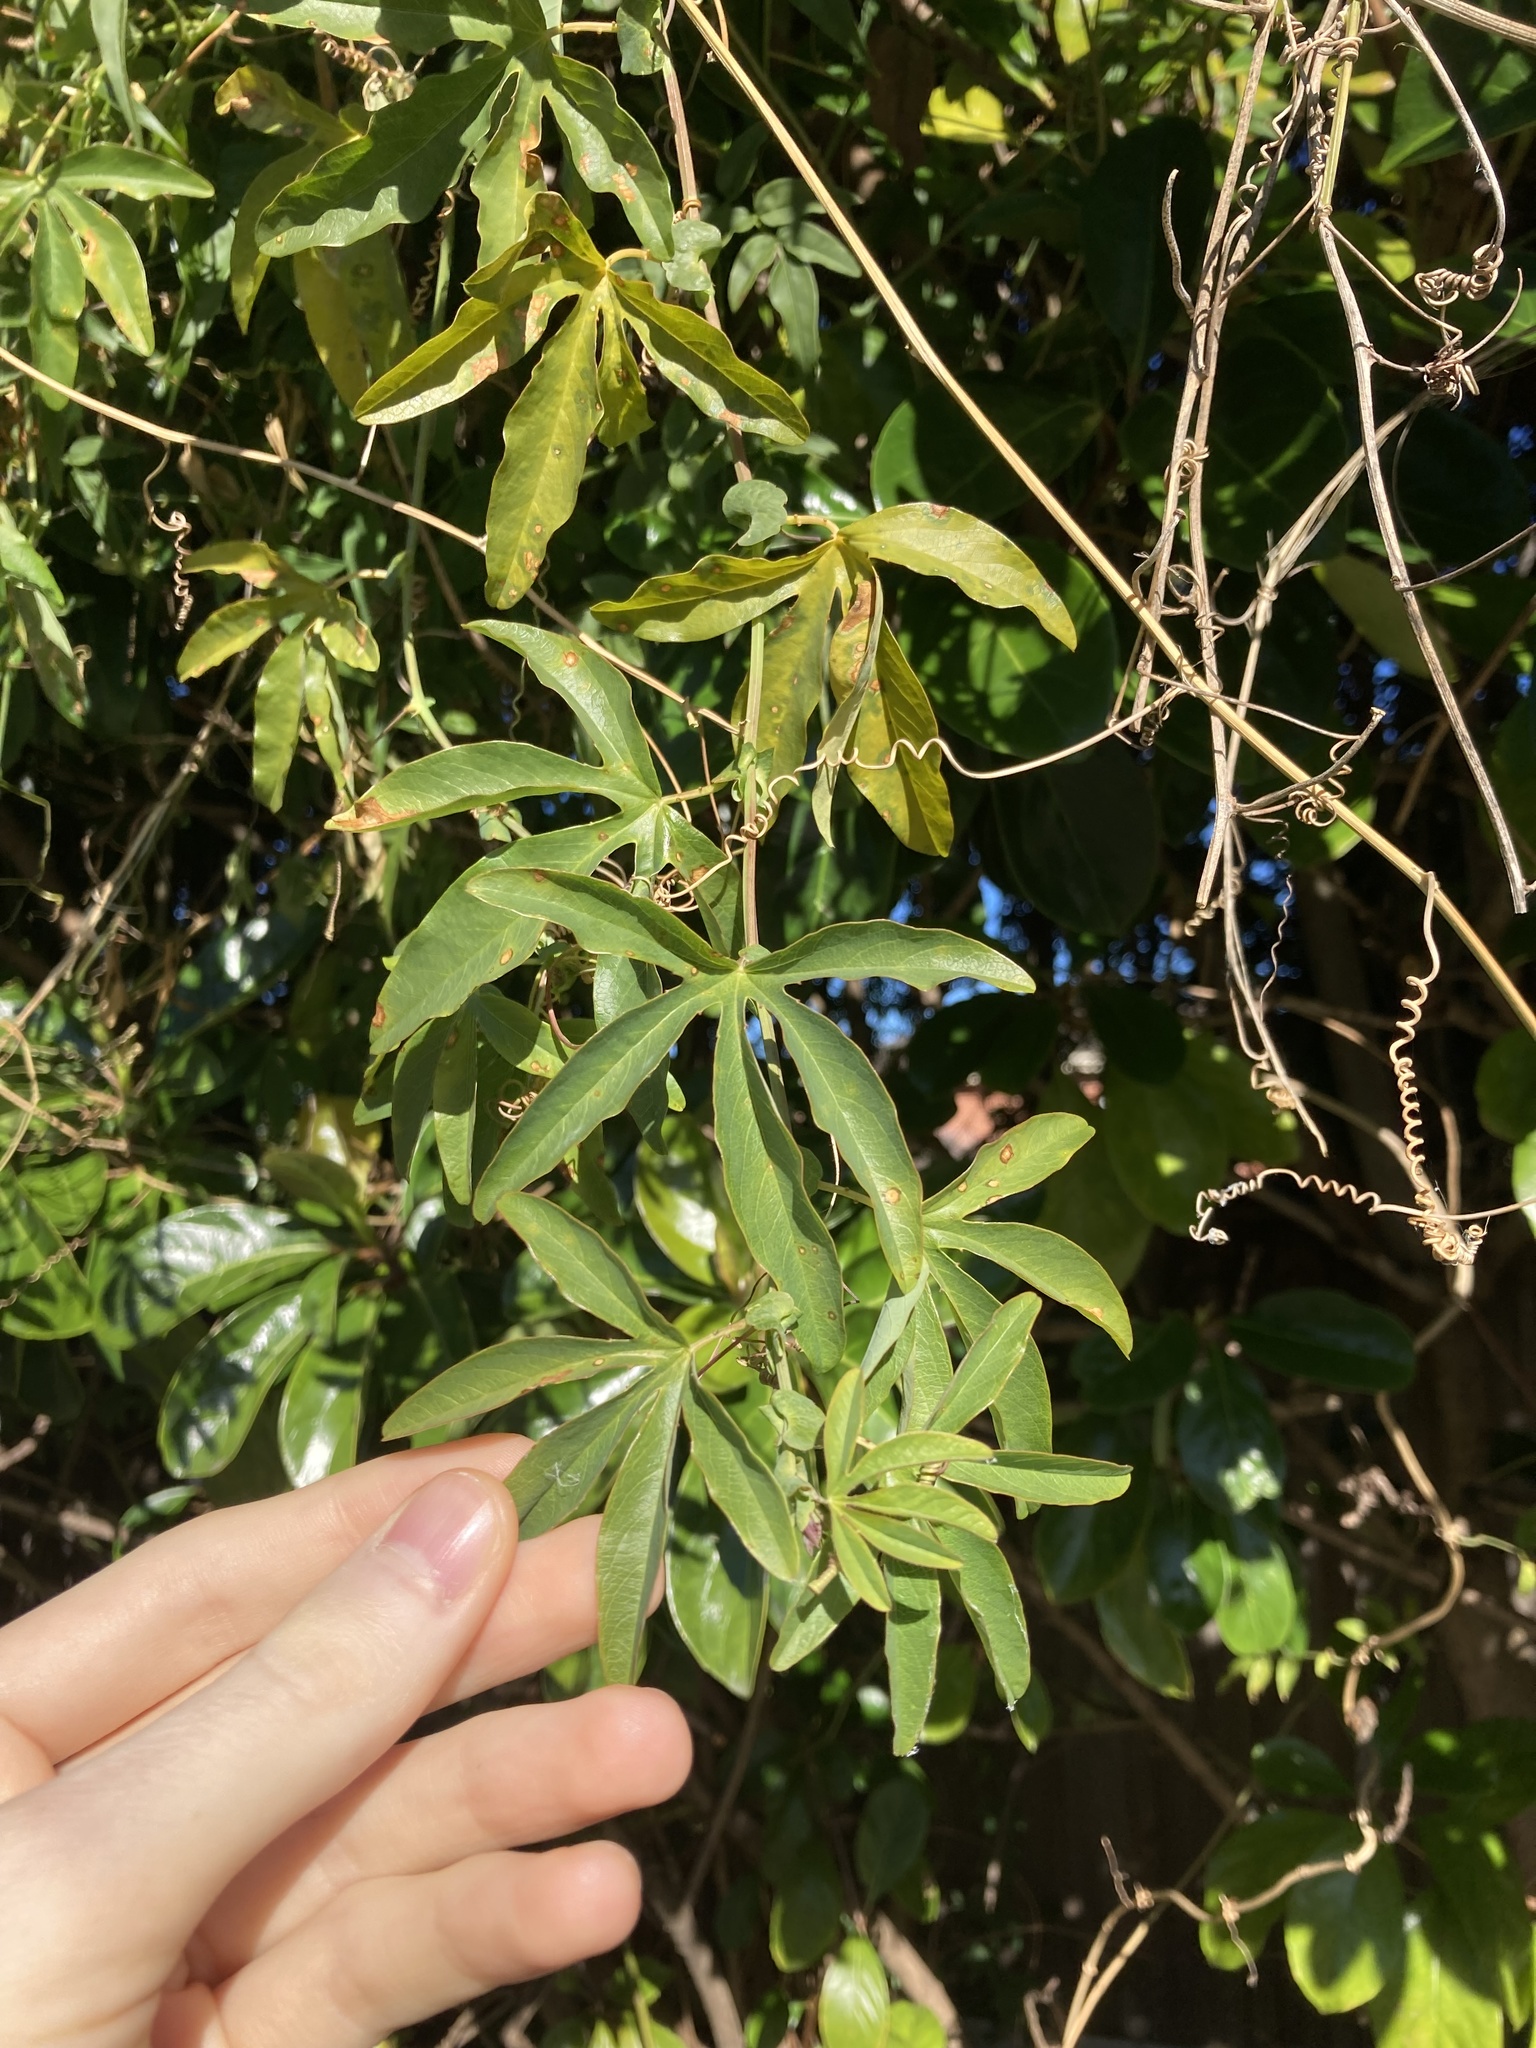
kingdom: Plantae
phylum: Tracheophyta
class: Magnoliopsida
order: Malpighiales
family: Passifloraceae
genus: Passiflora
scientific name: Passiflora caerulea
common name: Blue passionflower
